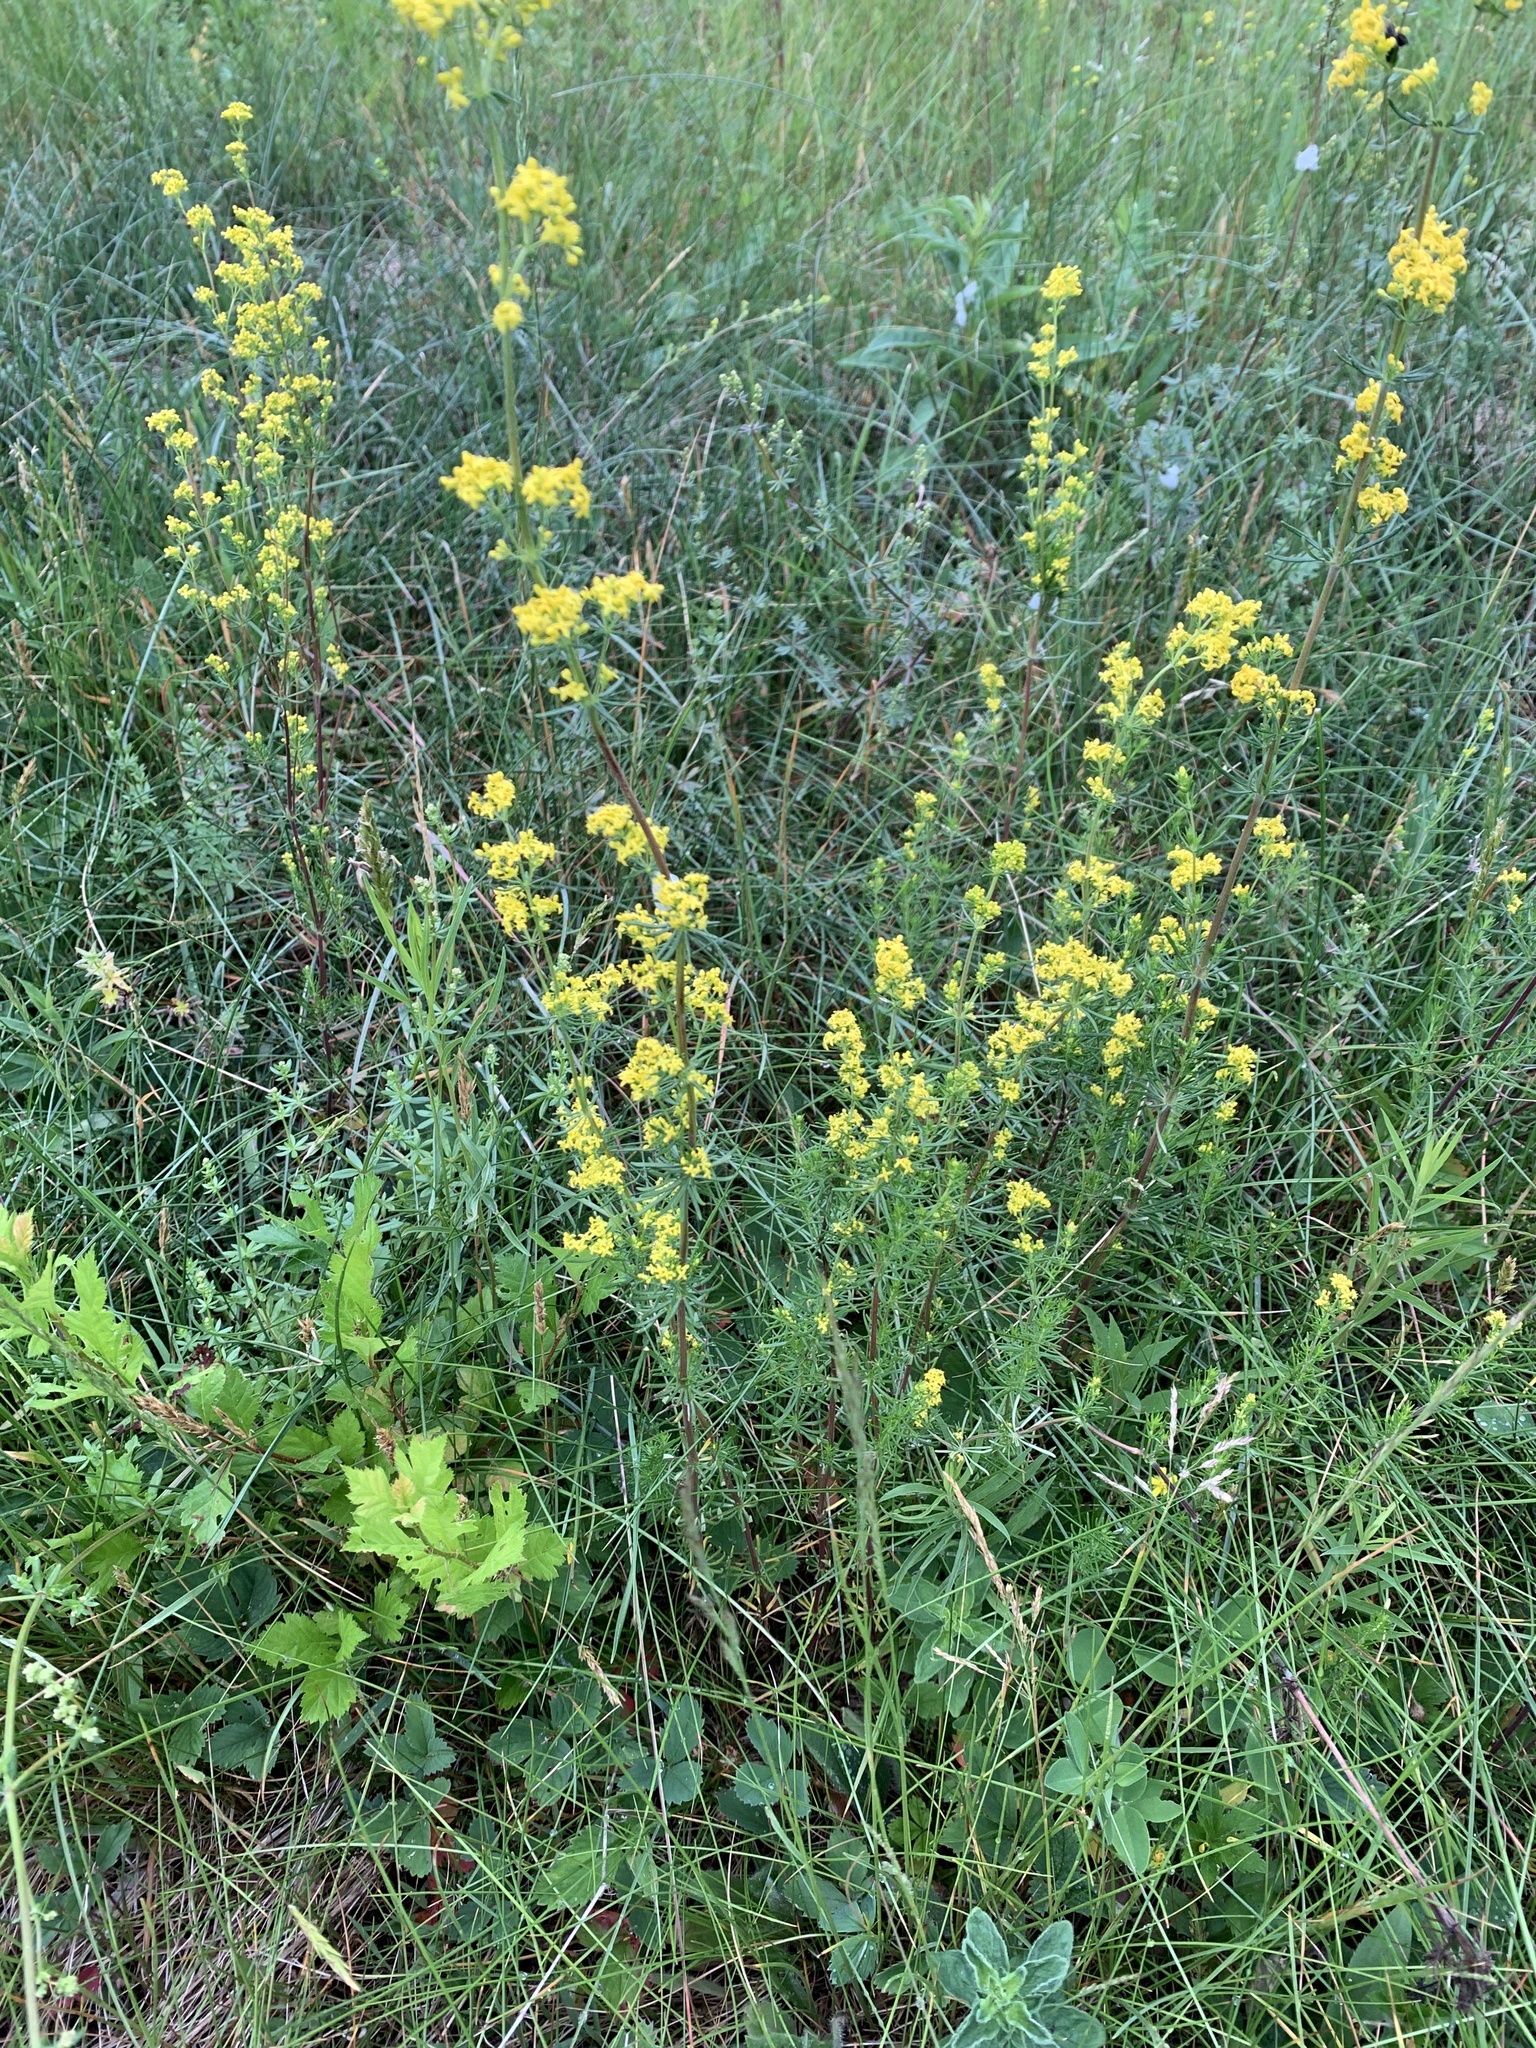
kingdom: Plantae
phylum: Tracheophyta
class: Magnoliopsida
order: Gentianales
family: Rubiaceae
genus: Galium
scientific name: Galium verum
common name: Lady's bedstraw
